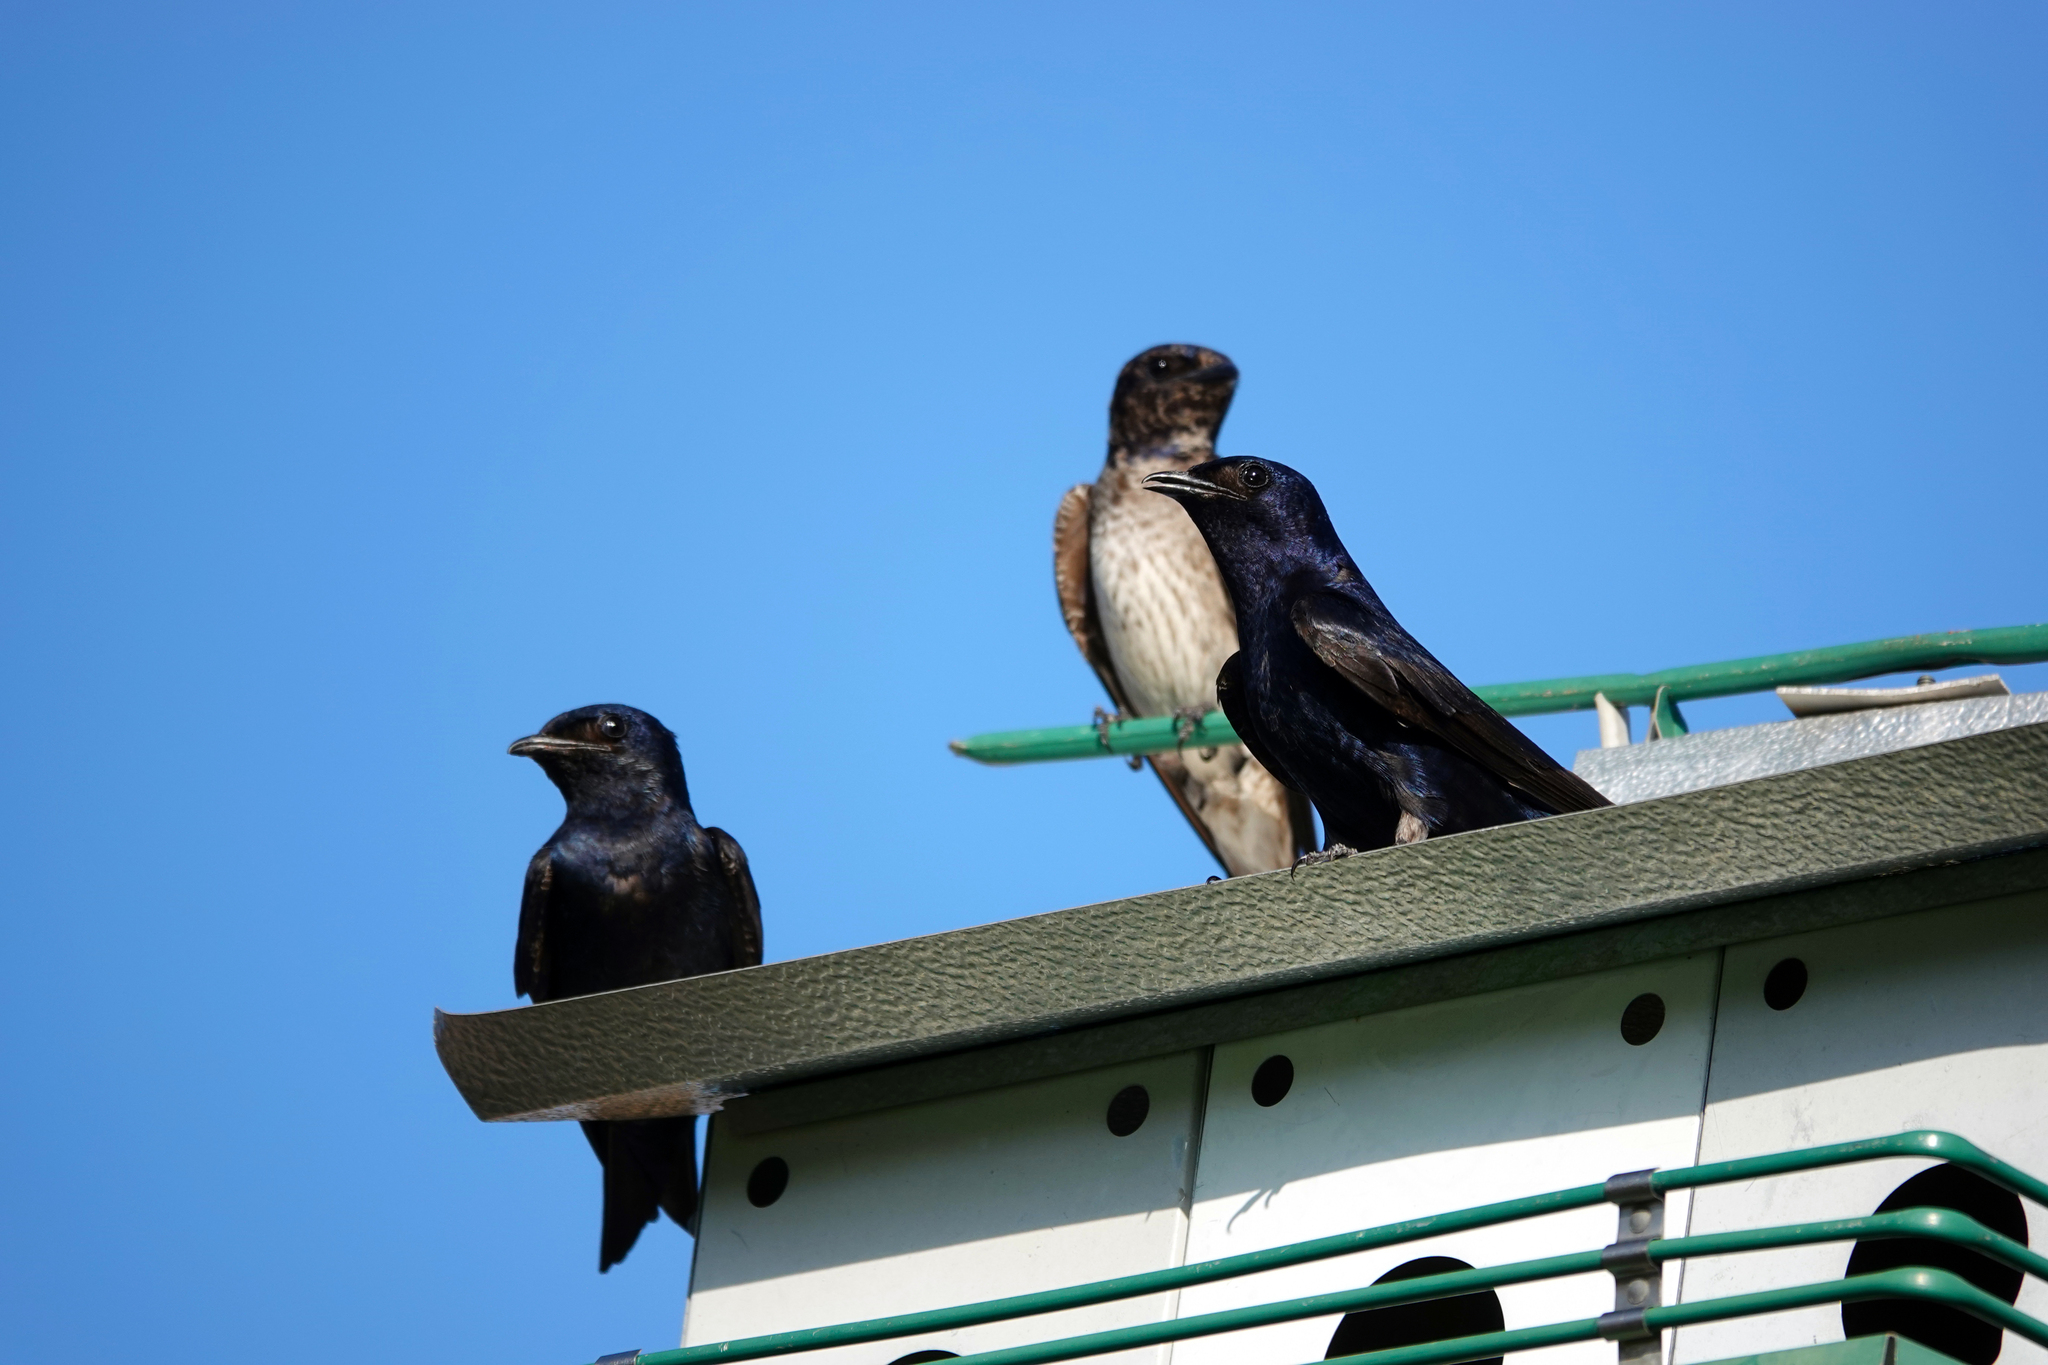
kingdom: Animalia
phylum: Chordata
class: Aves
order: Passeriformes
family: Hirundinidae
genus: Progne
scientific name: Progne subis
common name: Purple martin
